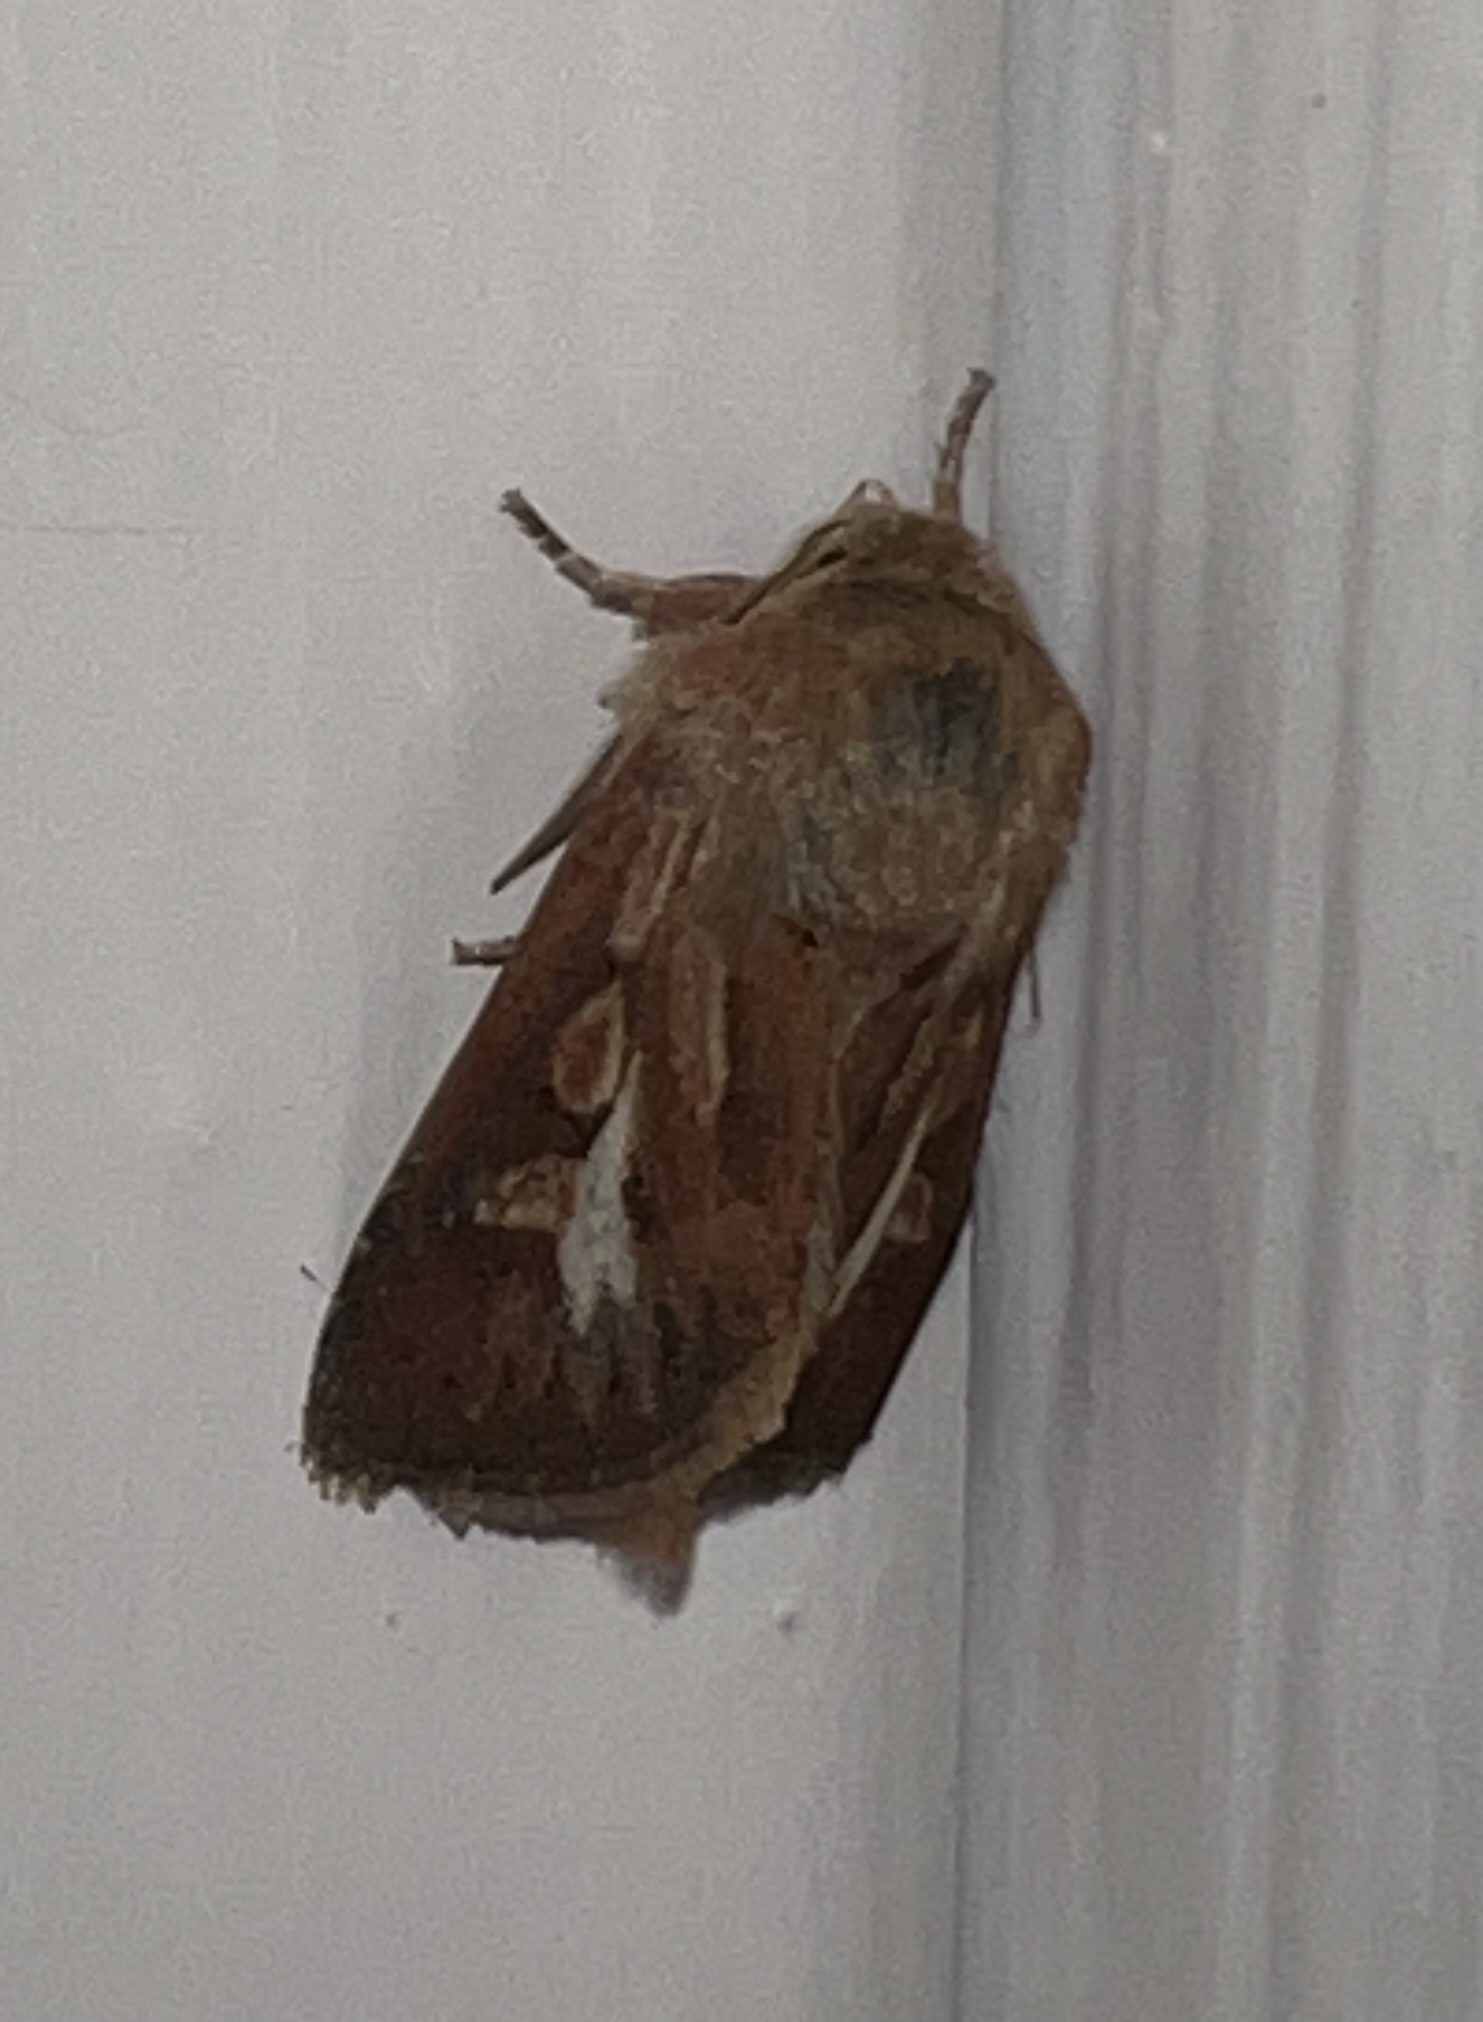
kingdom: Animalia
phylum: Arthropoda
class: Insecta
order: Lepidoptera
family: Noctuidae
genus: Cerapteryx
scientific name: Cerapteryx graminis
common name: Antler moth
